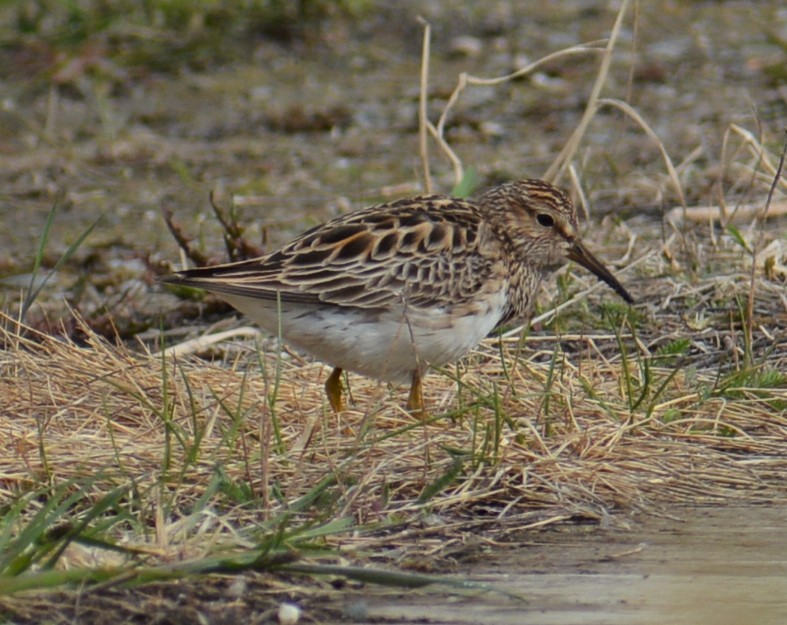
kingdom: Animalia
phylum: Chordata
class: Aves
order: Charadriiformes
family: Scolopacidae
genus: Calidris
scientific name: Calidris melanotos
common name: Pectoral sandpiper
